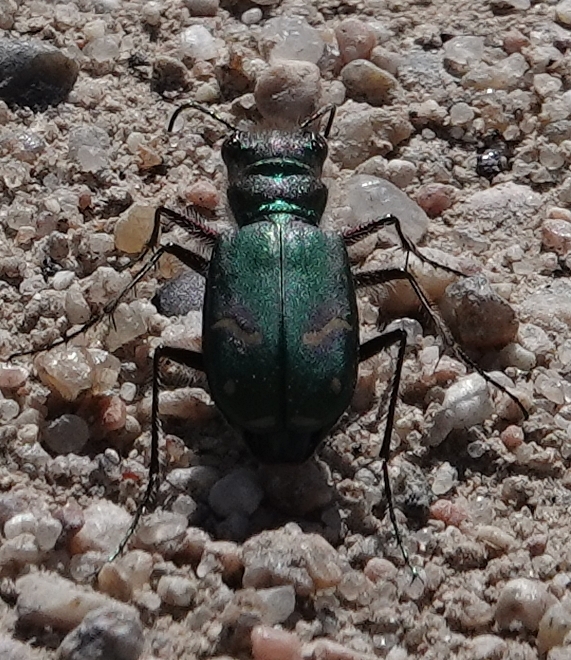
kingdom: Animalia
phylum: Arthropoda
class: Insecta
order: Coleoptera
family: Carabidae
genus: Cicindela
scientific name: Cicindela purpurea
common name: Cow path tiger beetle
